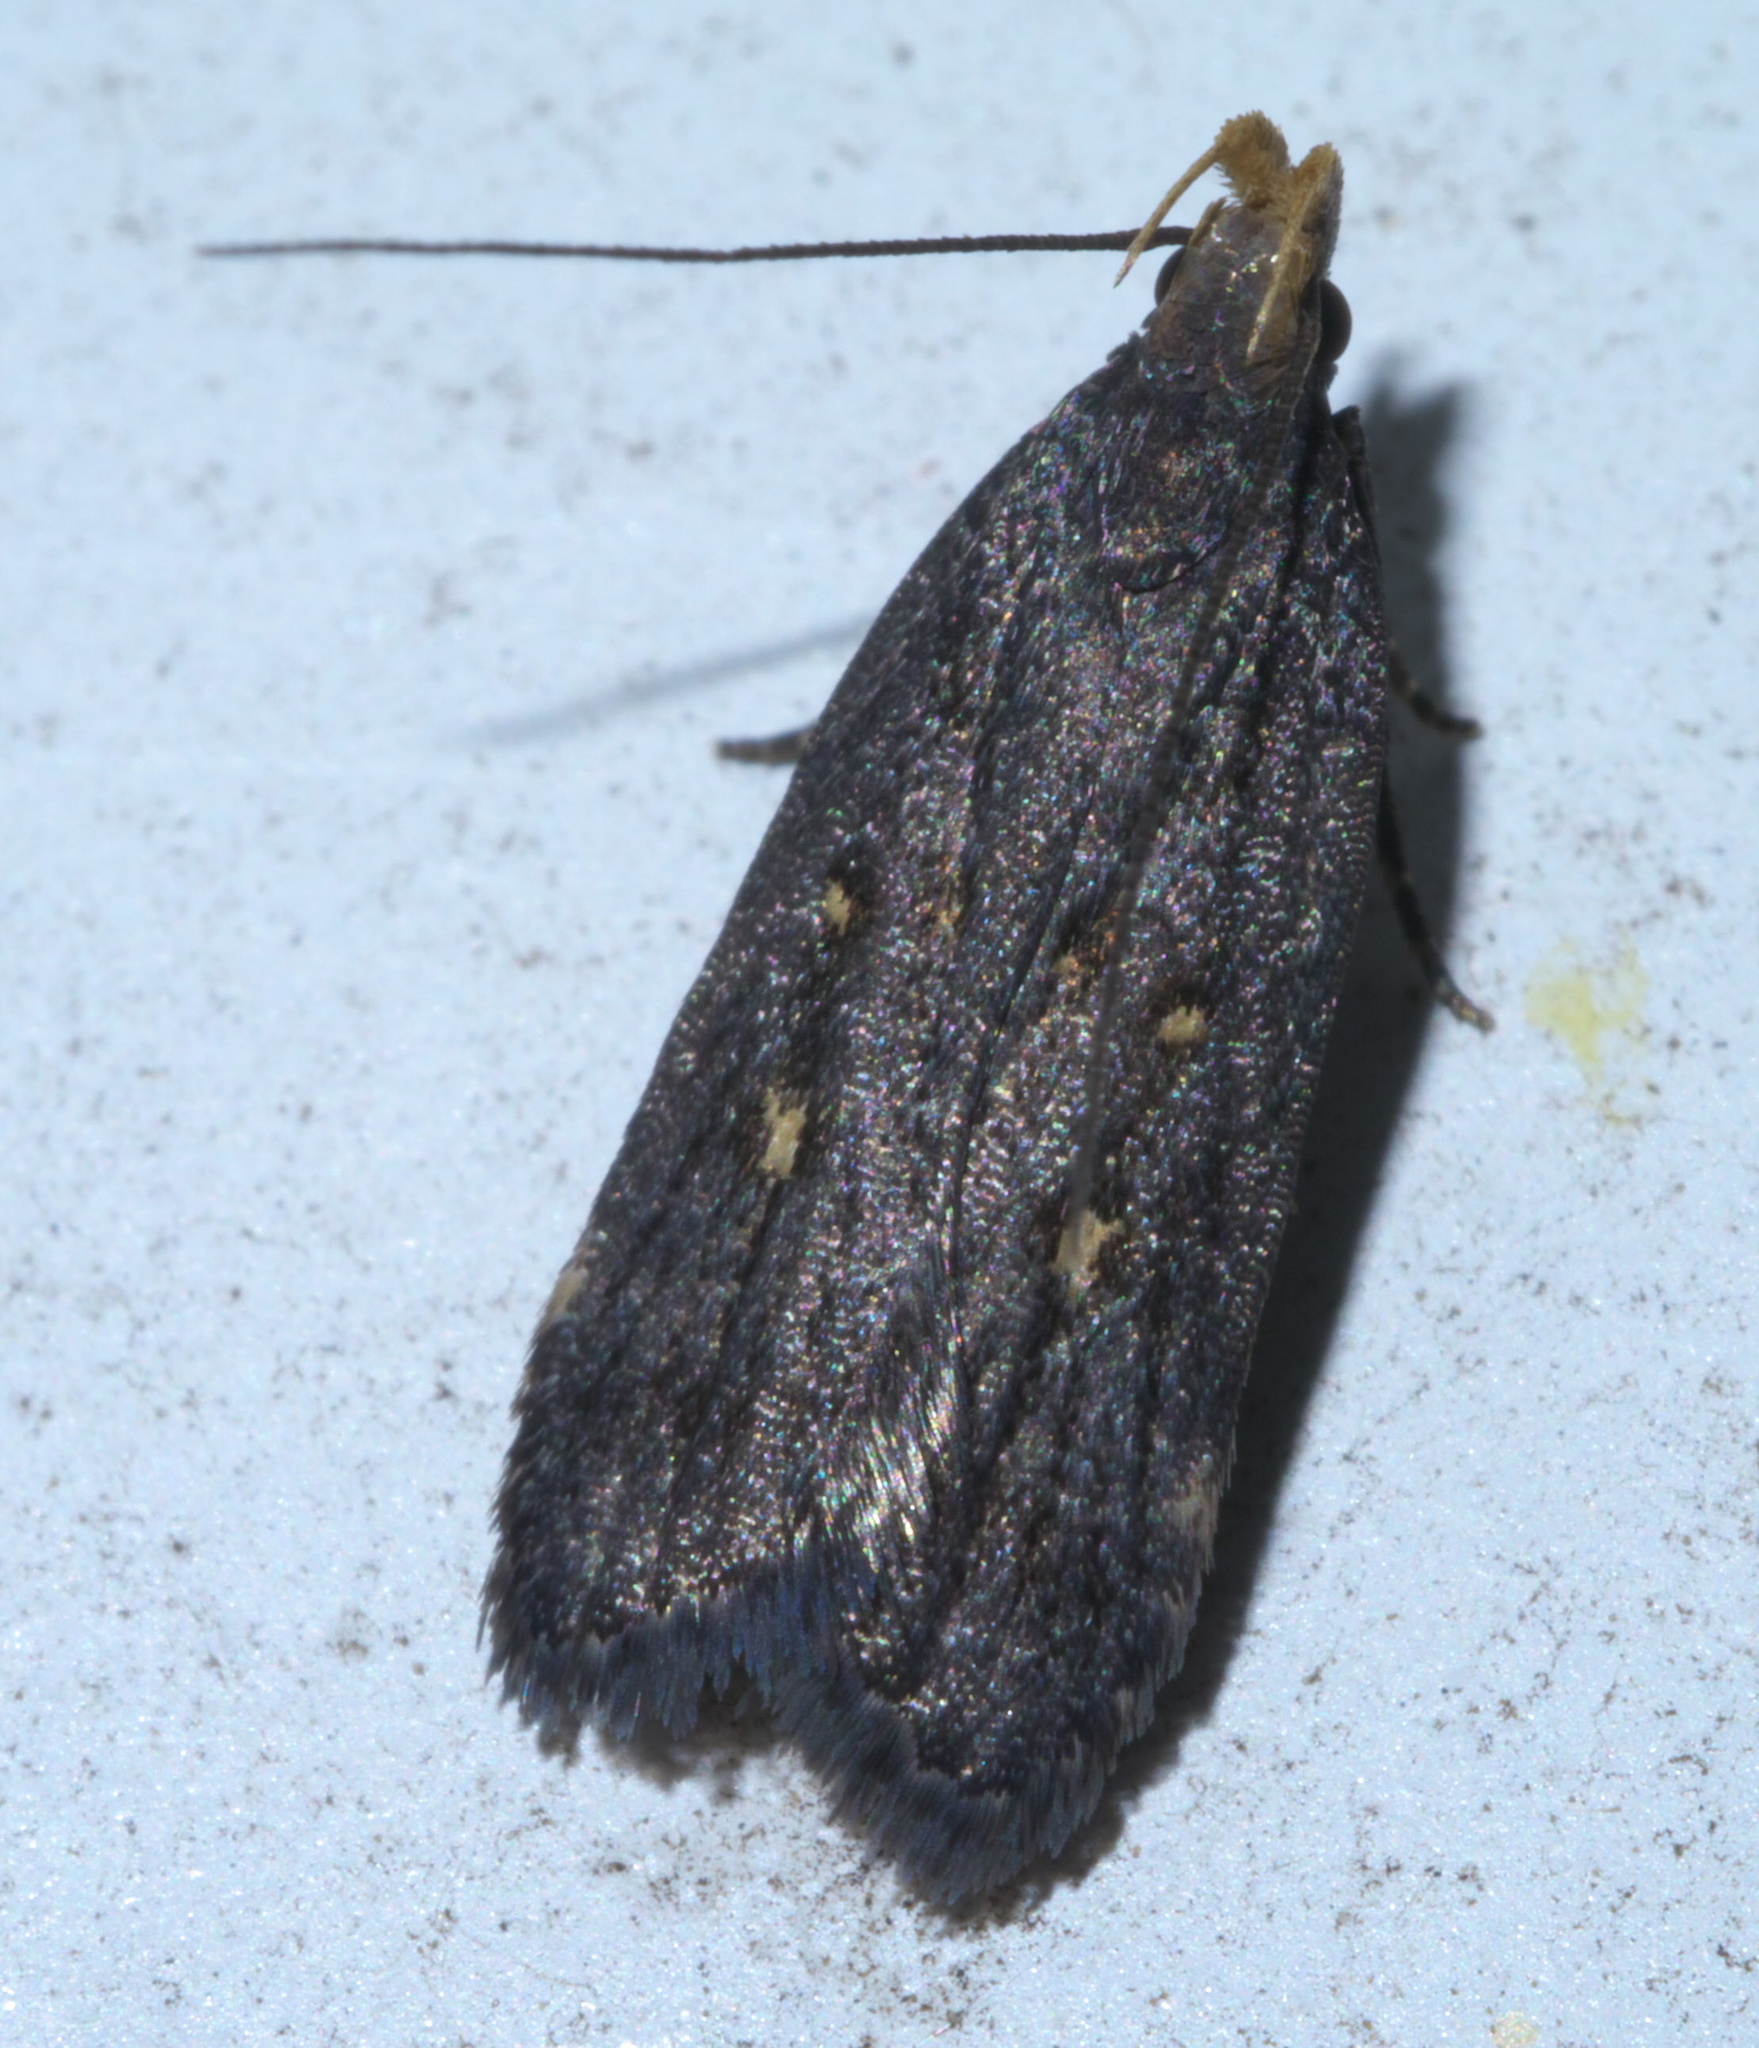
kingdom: Animalia
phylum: Arthropoda
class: Insecta
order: Lepidoptera
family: Gelechiidae
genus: Dichomeris
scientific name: Dichomeris agonia
